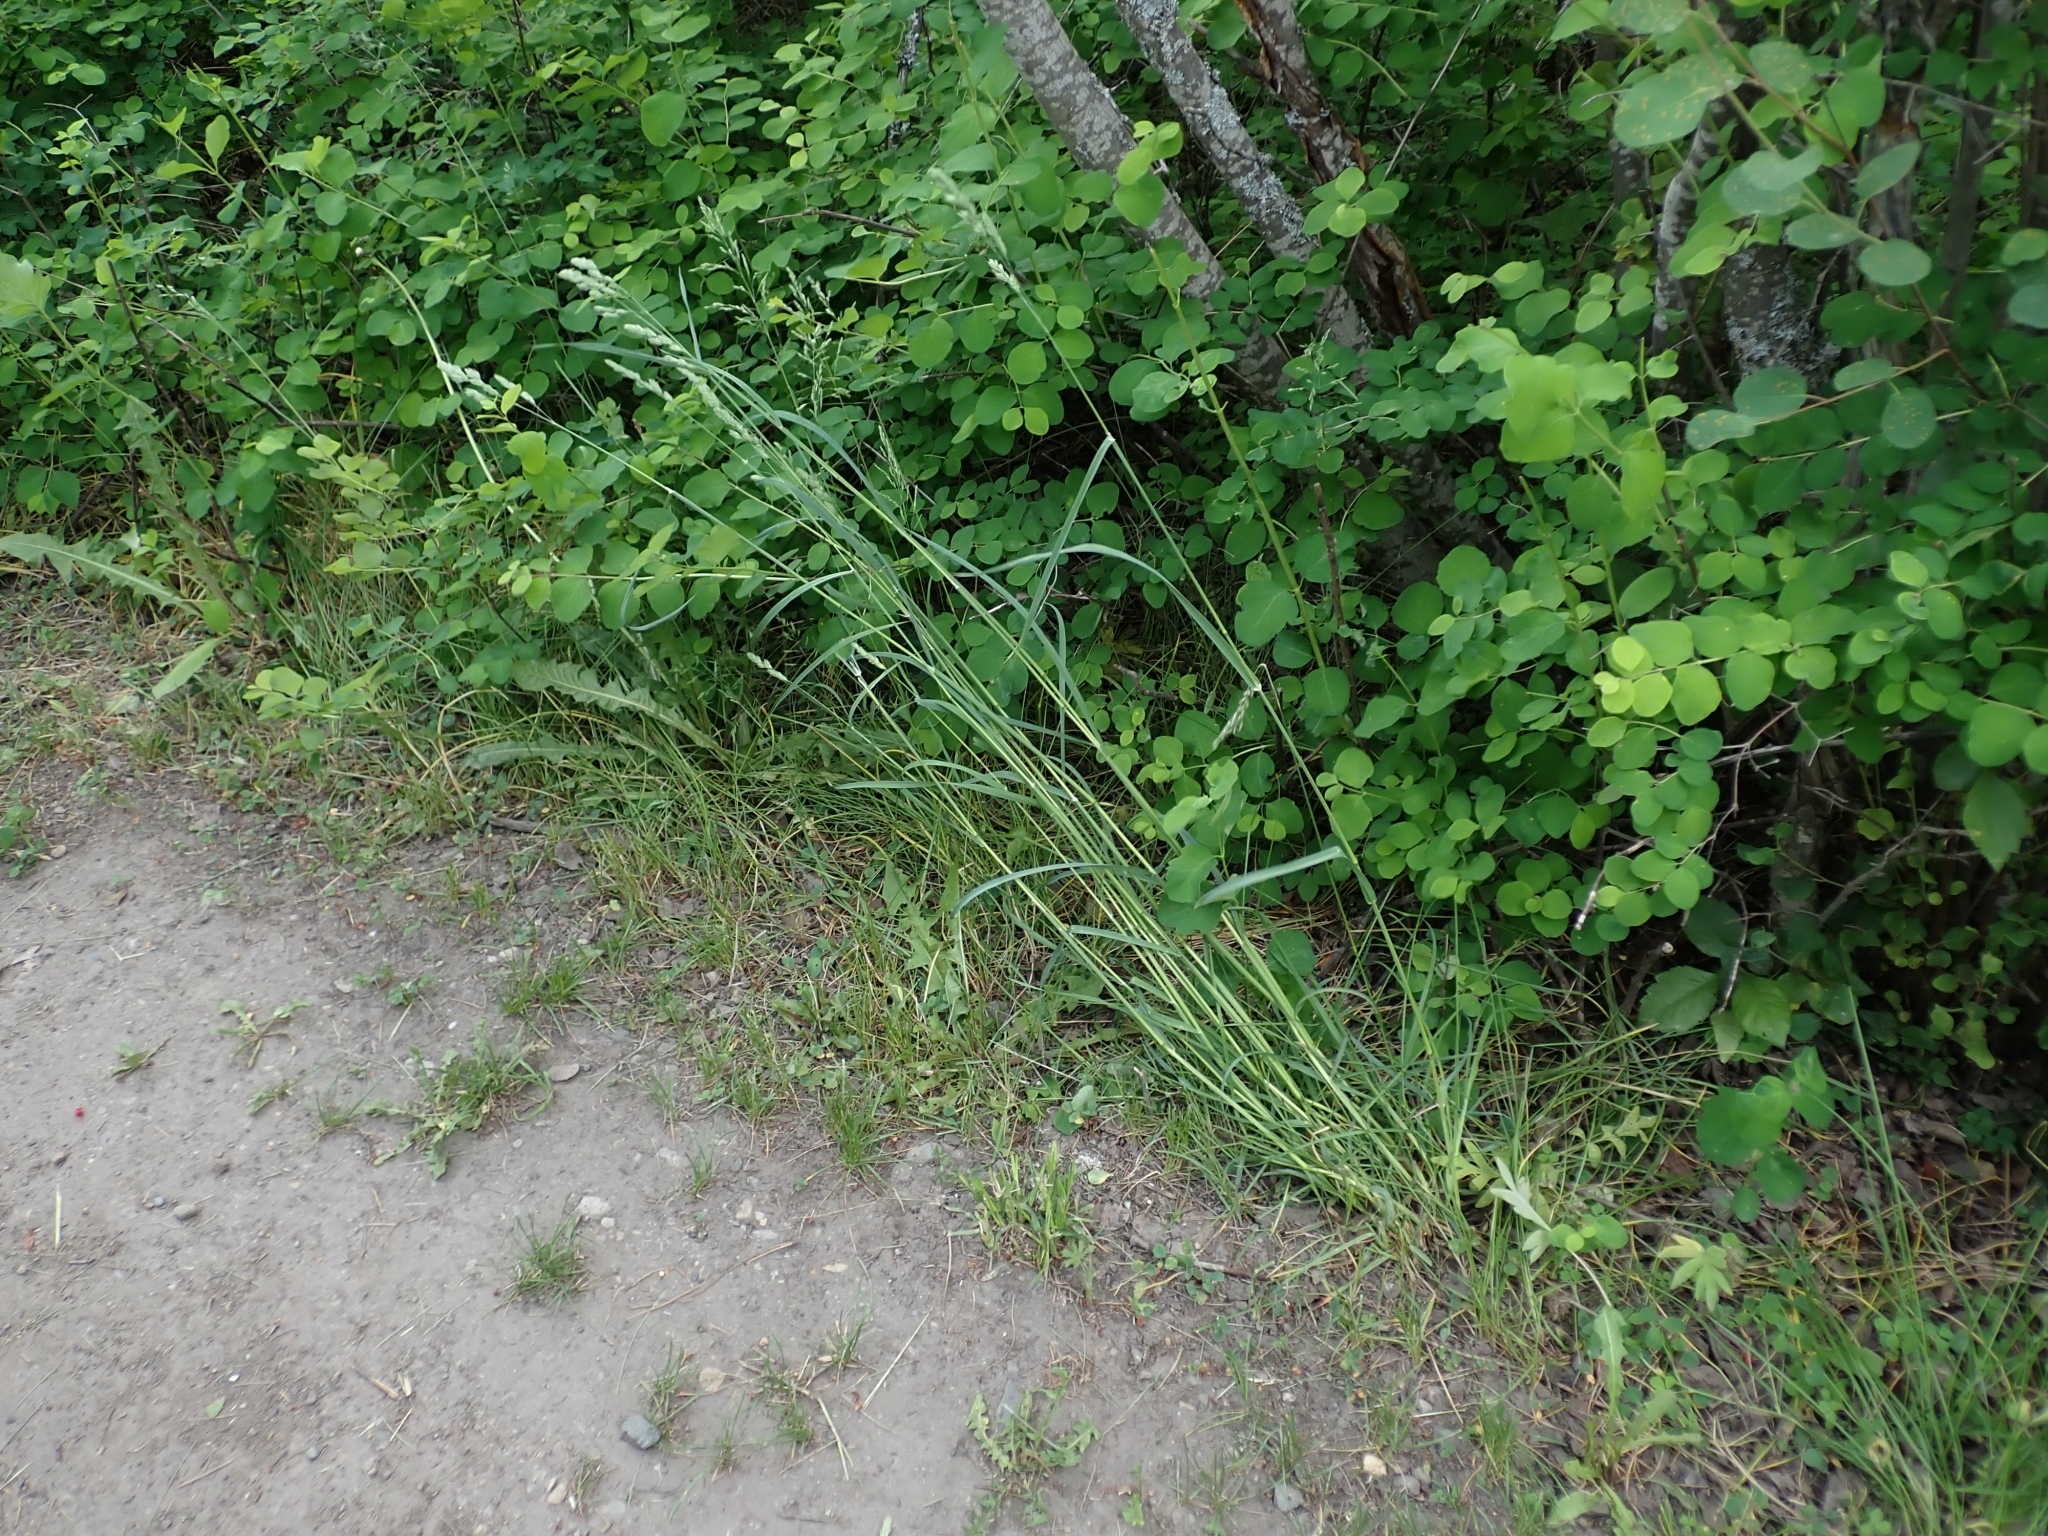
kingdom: Plantae
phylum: Tracheophyta
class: Liliopsida
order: Poales
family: Poaceae
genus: Dactylis
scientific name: Dactylis glomerata
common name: Orchardgrass
